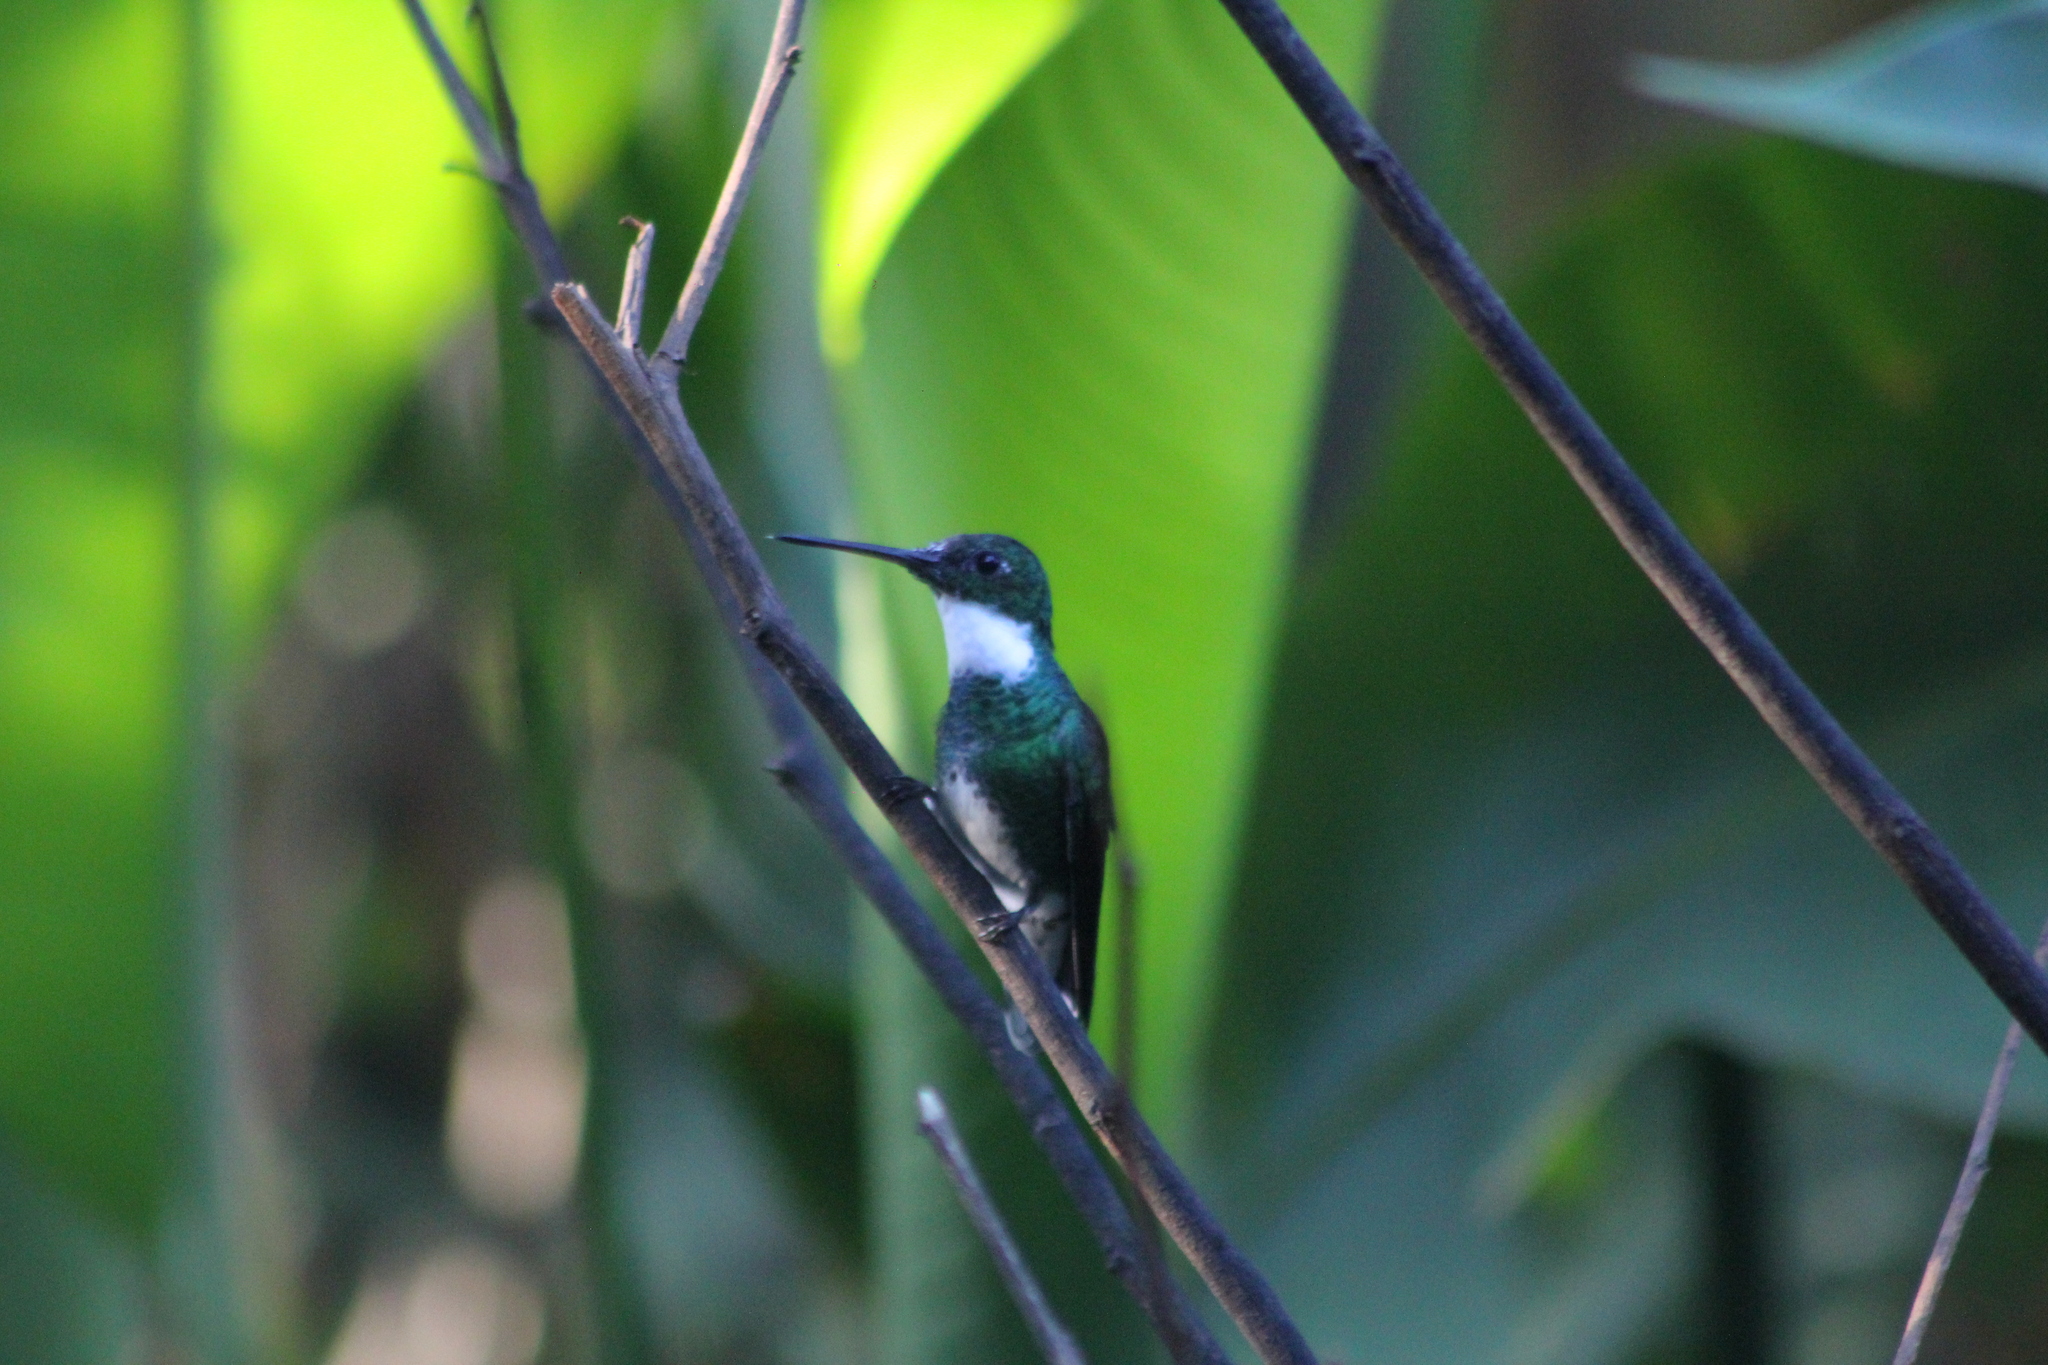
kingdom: Animalia
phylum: Chordata
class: Aves
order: Apodiformes
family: Trochilidae
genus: Leucochloris
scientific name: Leucochloris albicollis
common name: White-throated hummingbird
